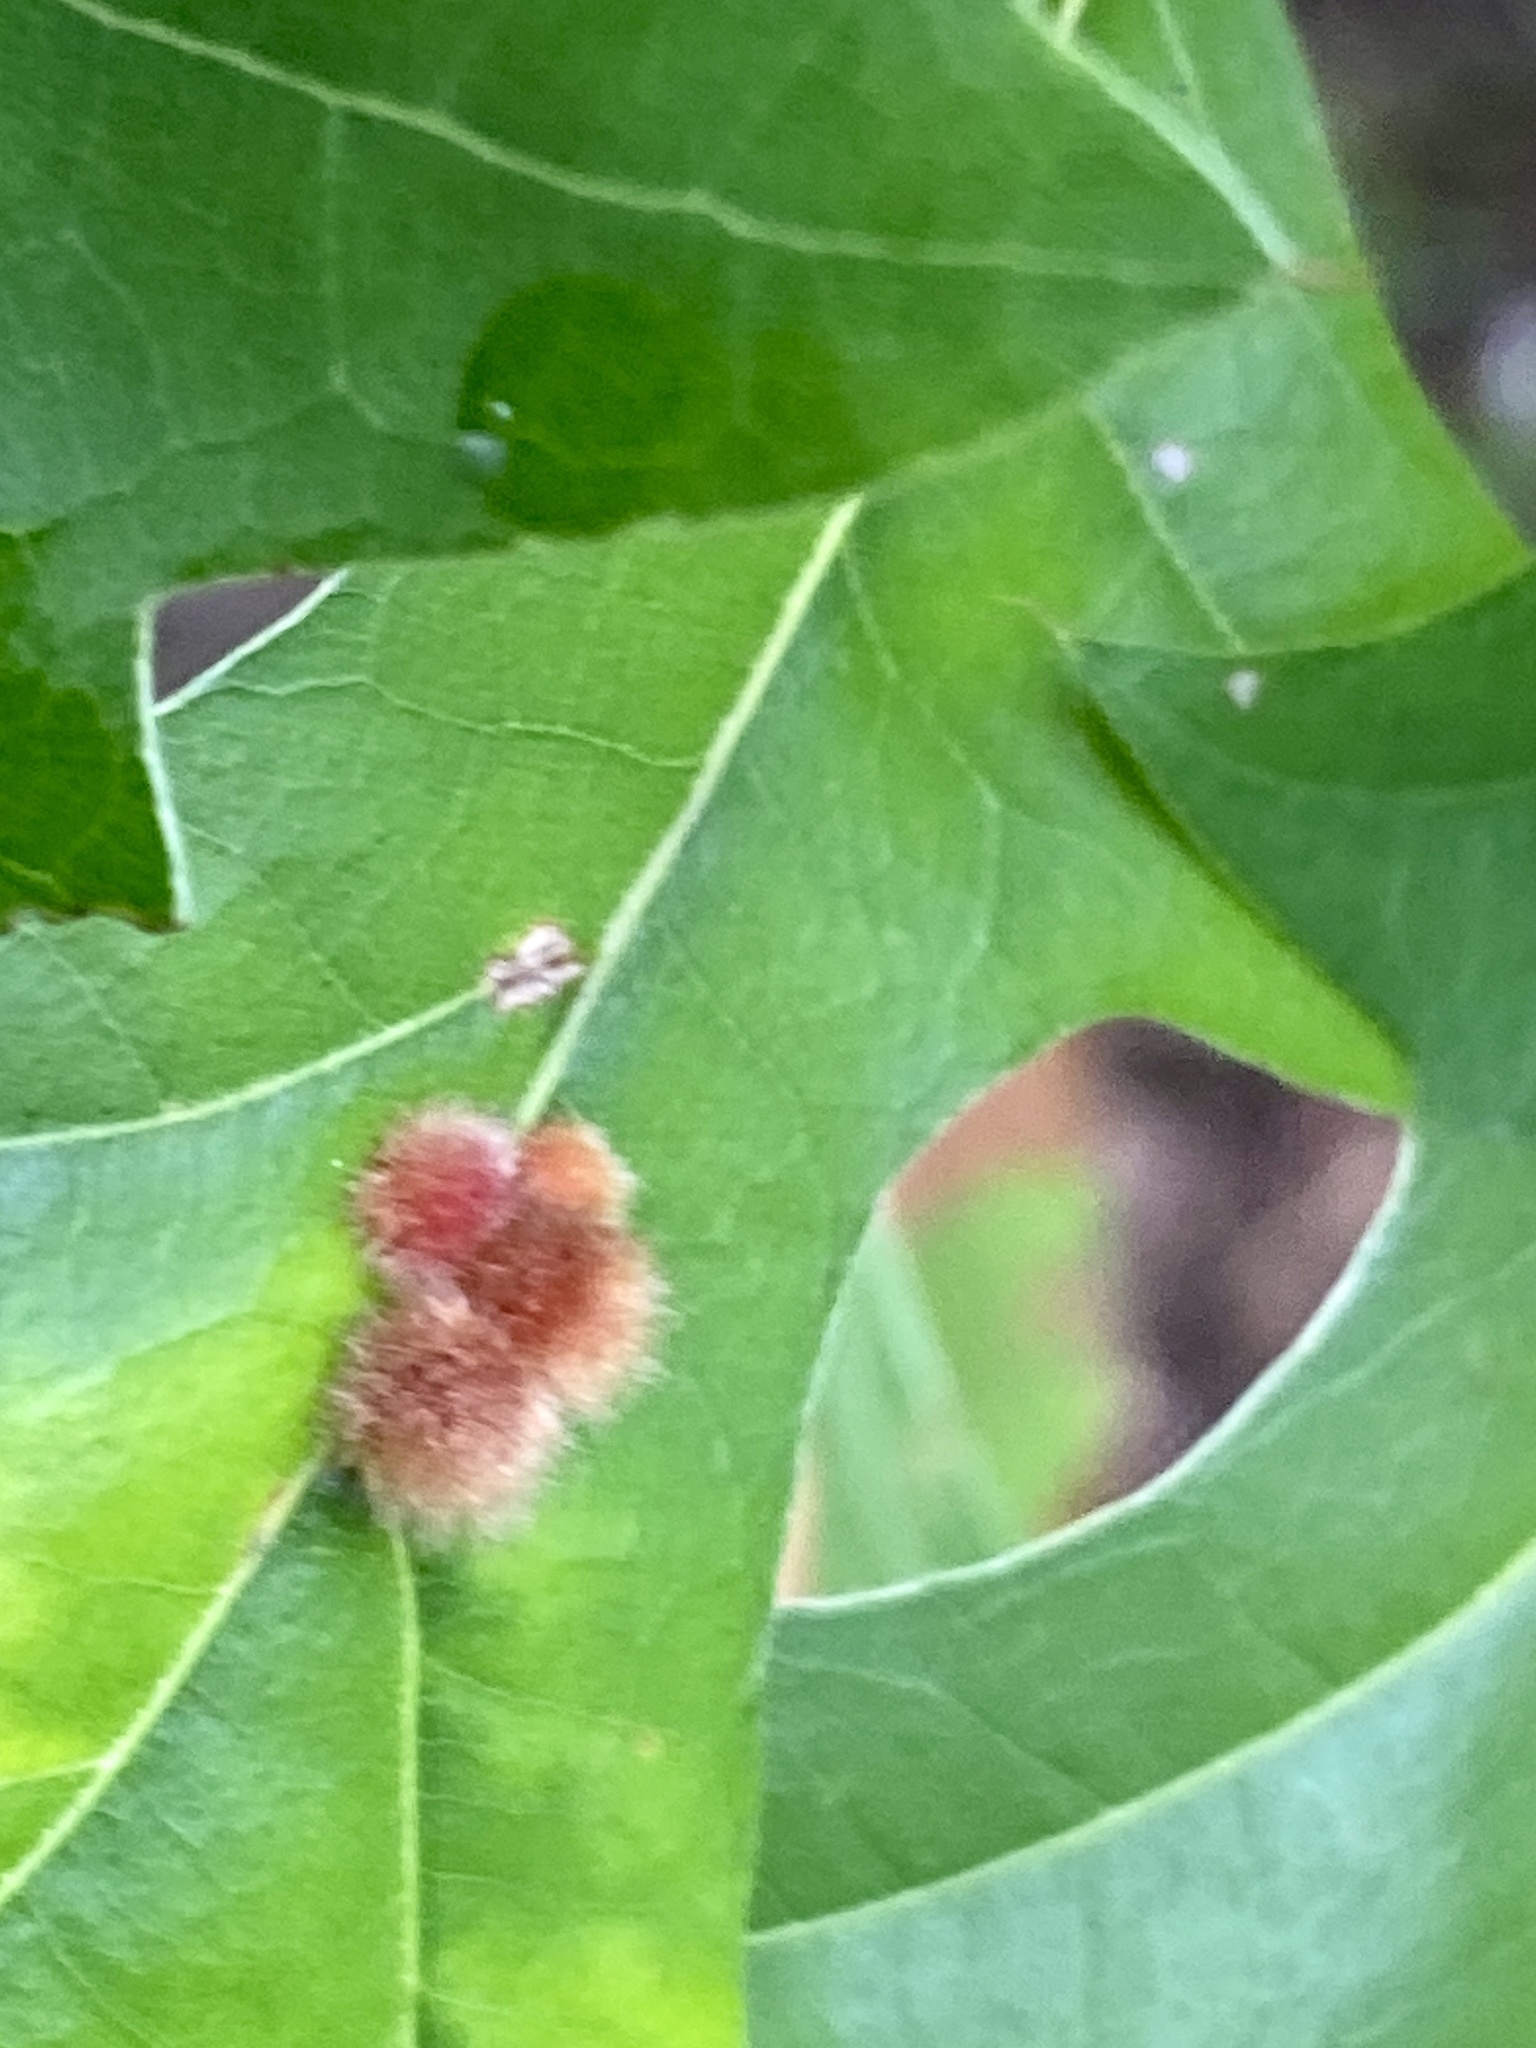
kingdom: Animalia
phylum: Arthropoda
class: Insecta
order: Hymenoptera
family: Cynipidae
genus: Callirhytis
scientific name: Callirhytis
